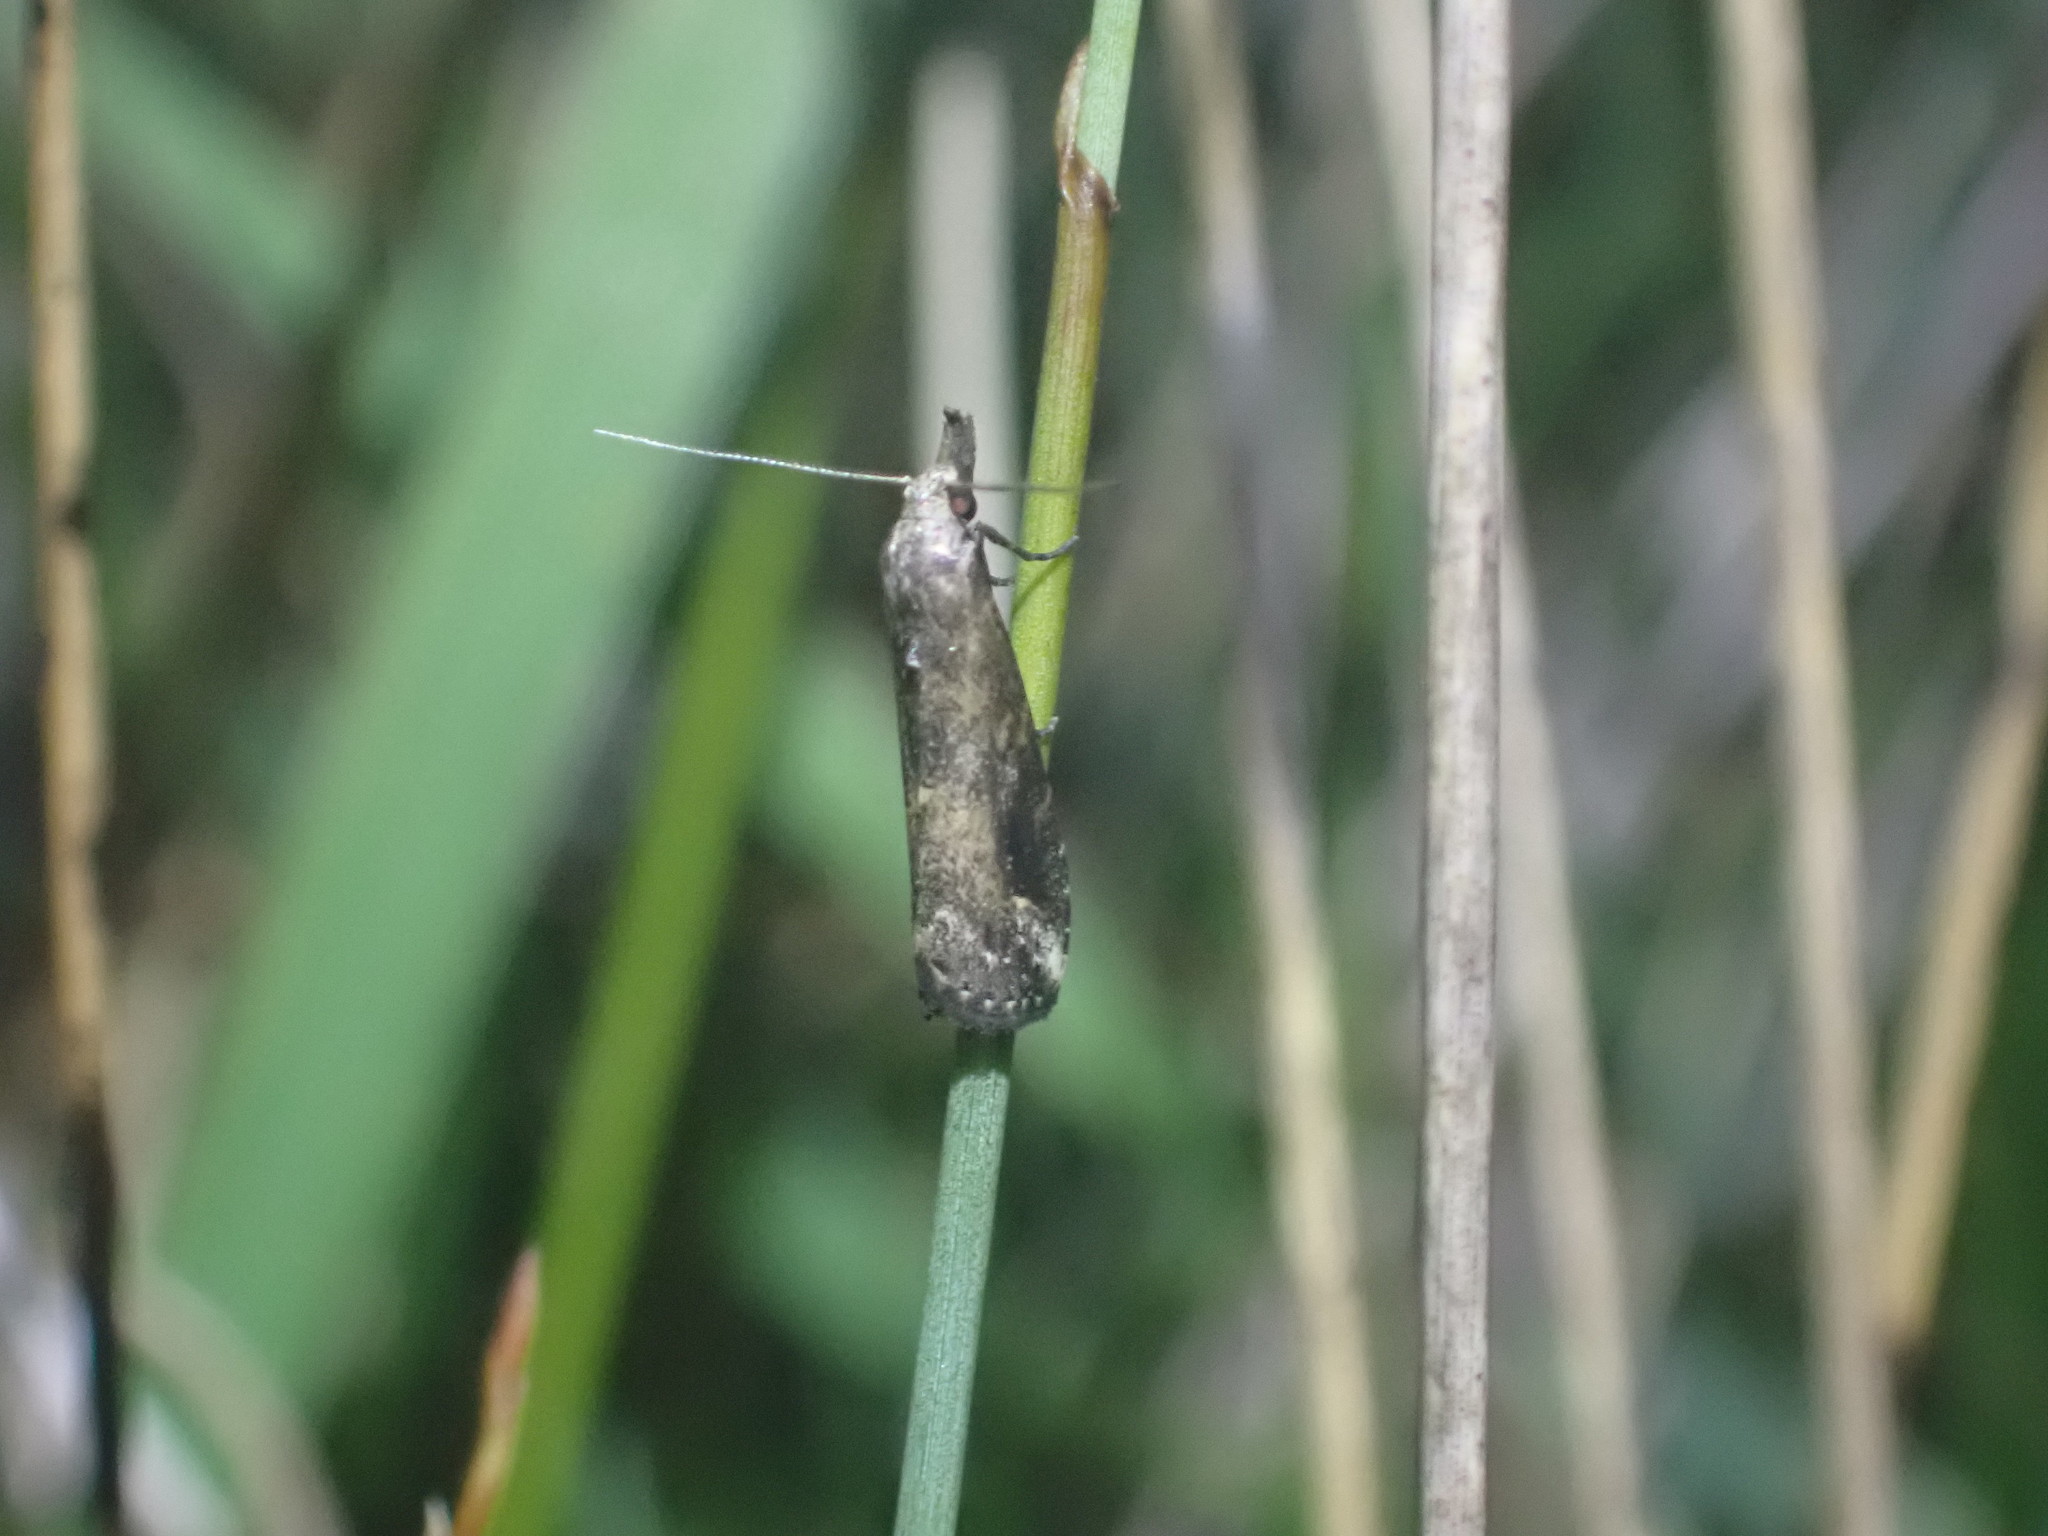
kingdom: Animalia
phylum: Arthropoda
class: Insecta
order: Lepidoptera
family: Erebidae
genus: Schrankia
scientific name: Schrankia costaestrigalis
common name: Pinion-streaked snout
